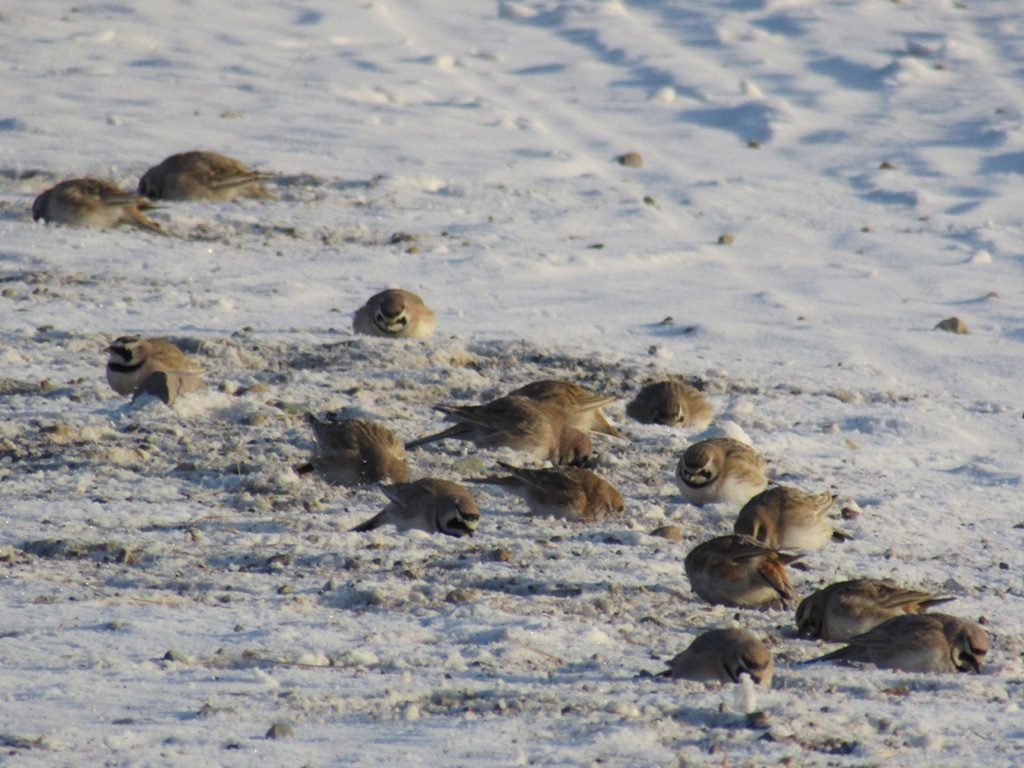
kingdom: Animalia
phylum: Chordata
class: Aves
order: Passeriformes
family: Alaudidae
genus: Eremophila
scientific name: Eremophila alpestris
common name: Horned lark
